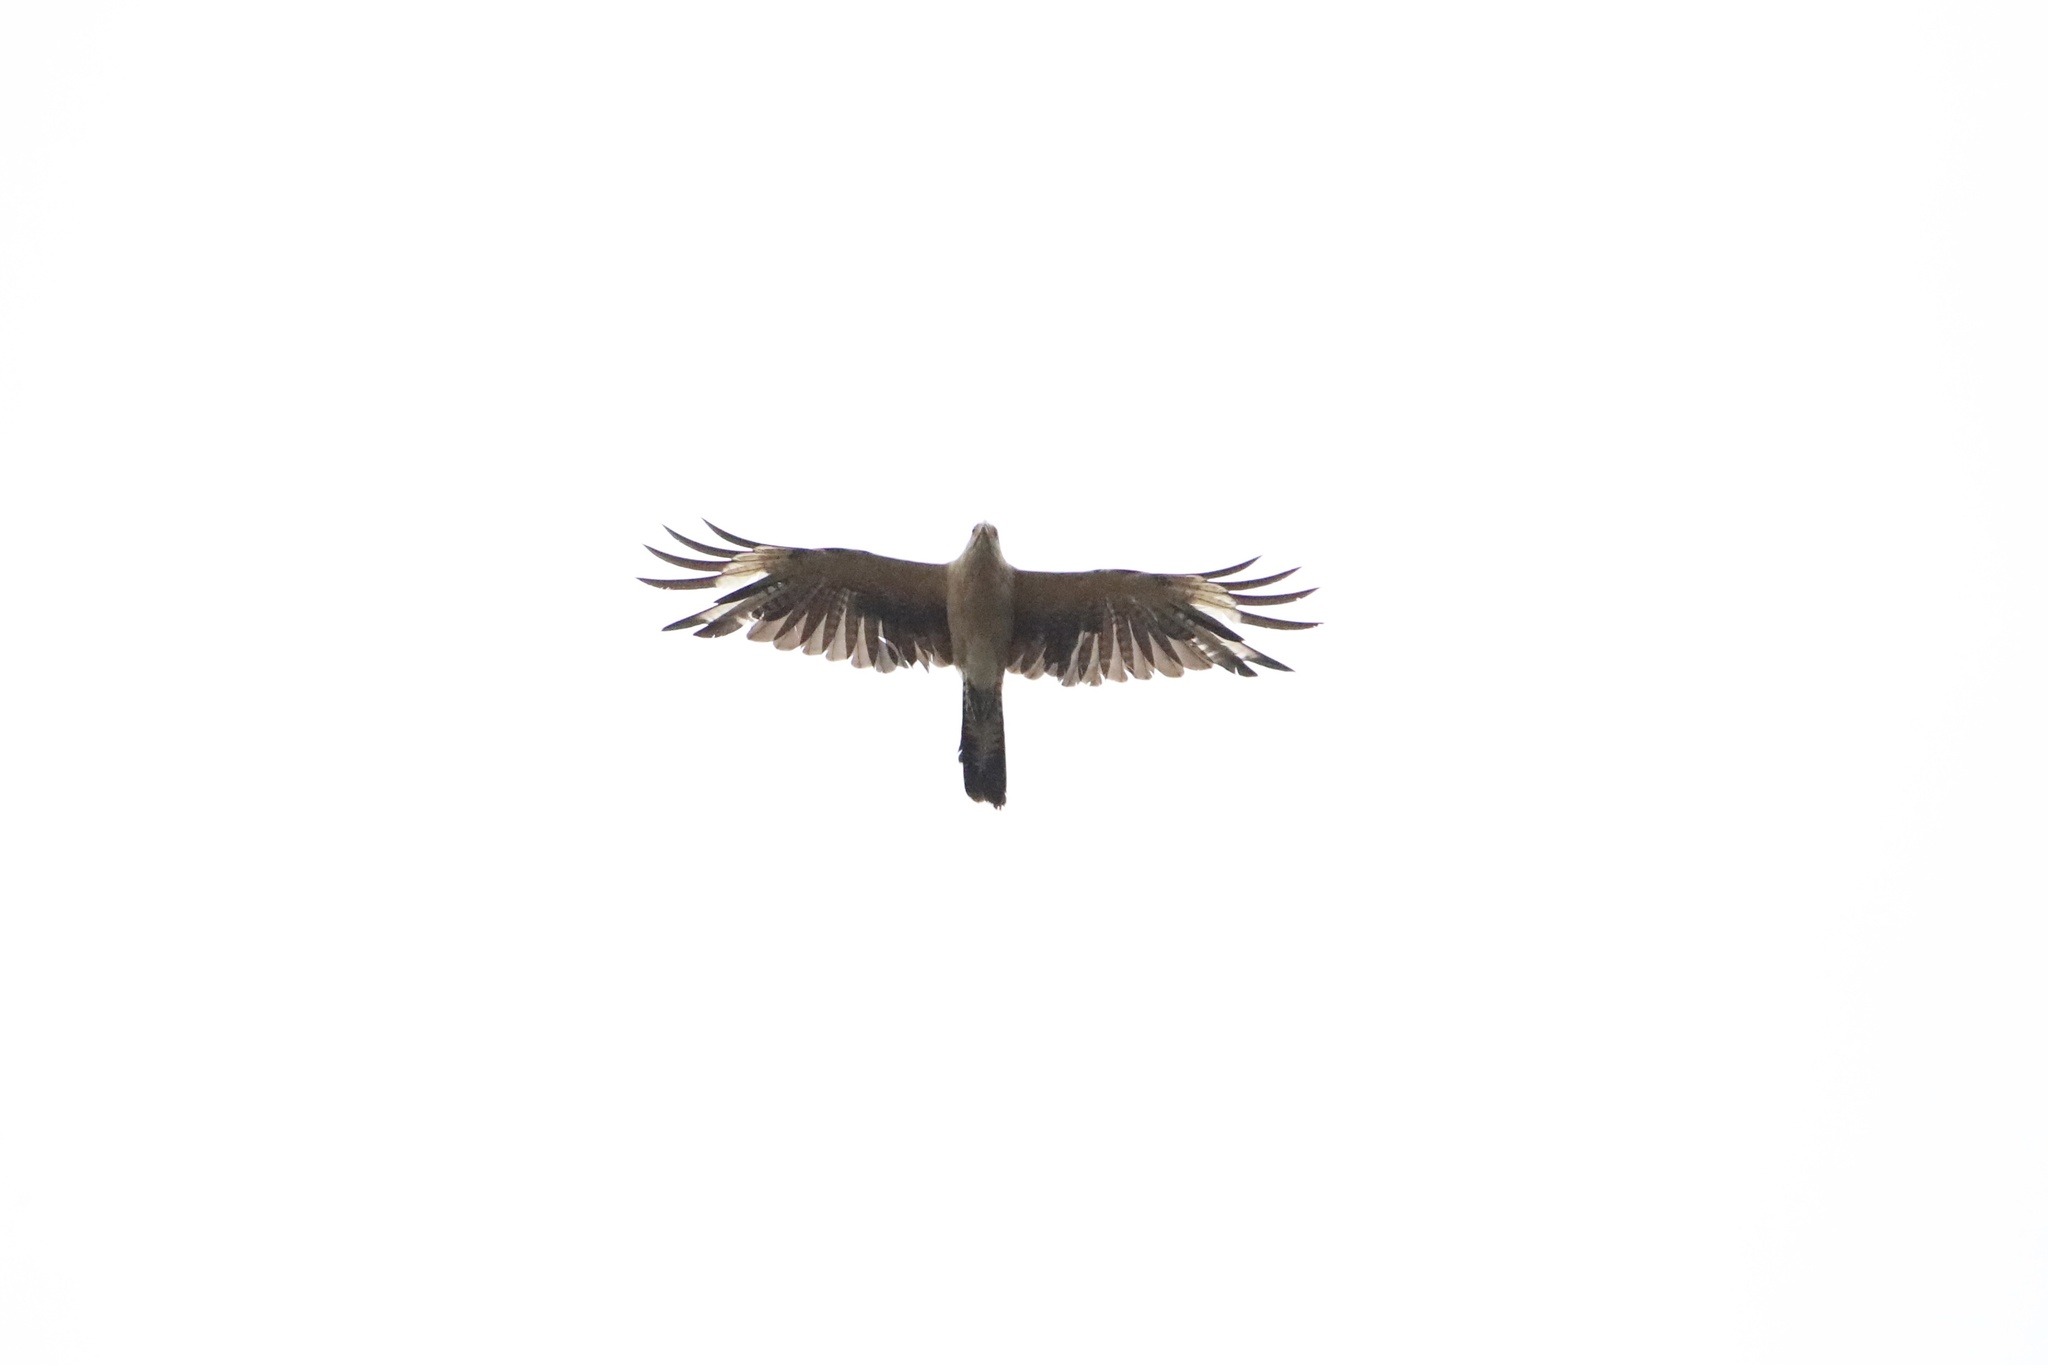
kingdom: Animalia
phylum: Chordata
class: Aves
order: Falconiformes
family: Falconidae
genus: Daptrius
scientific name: Daptrius
